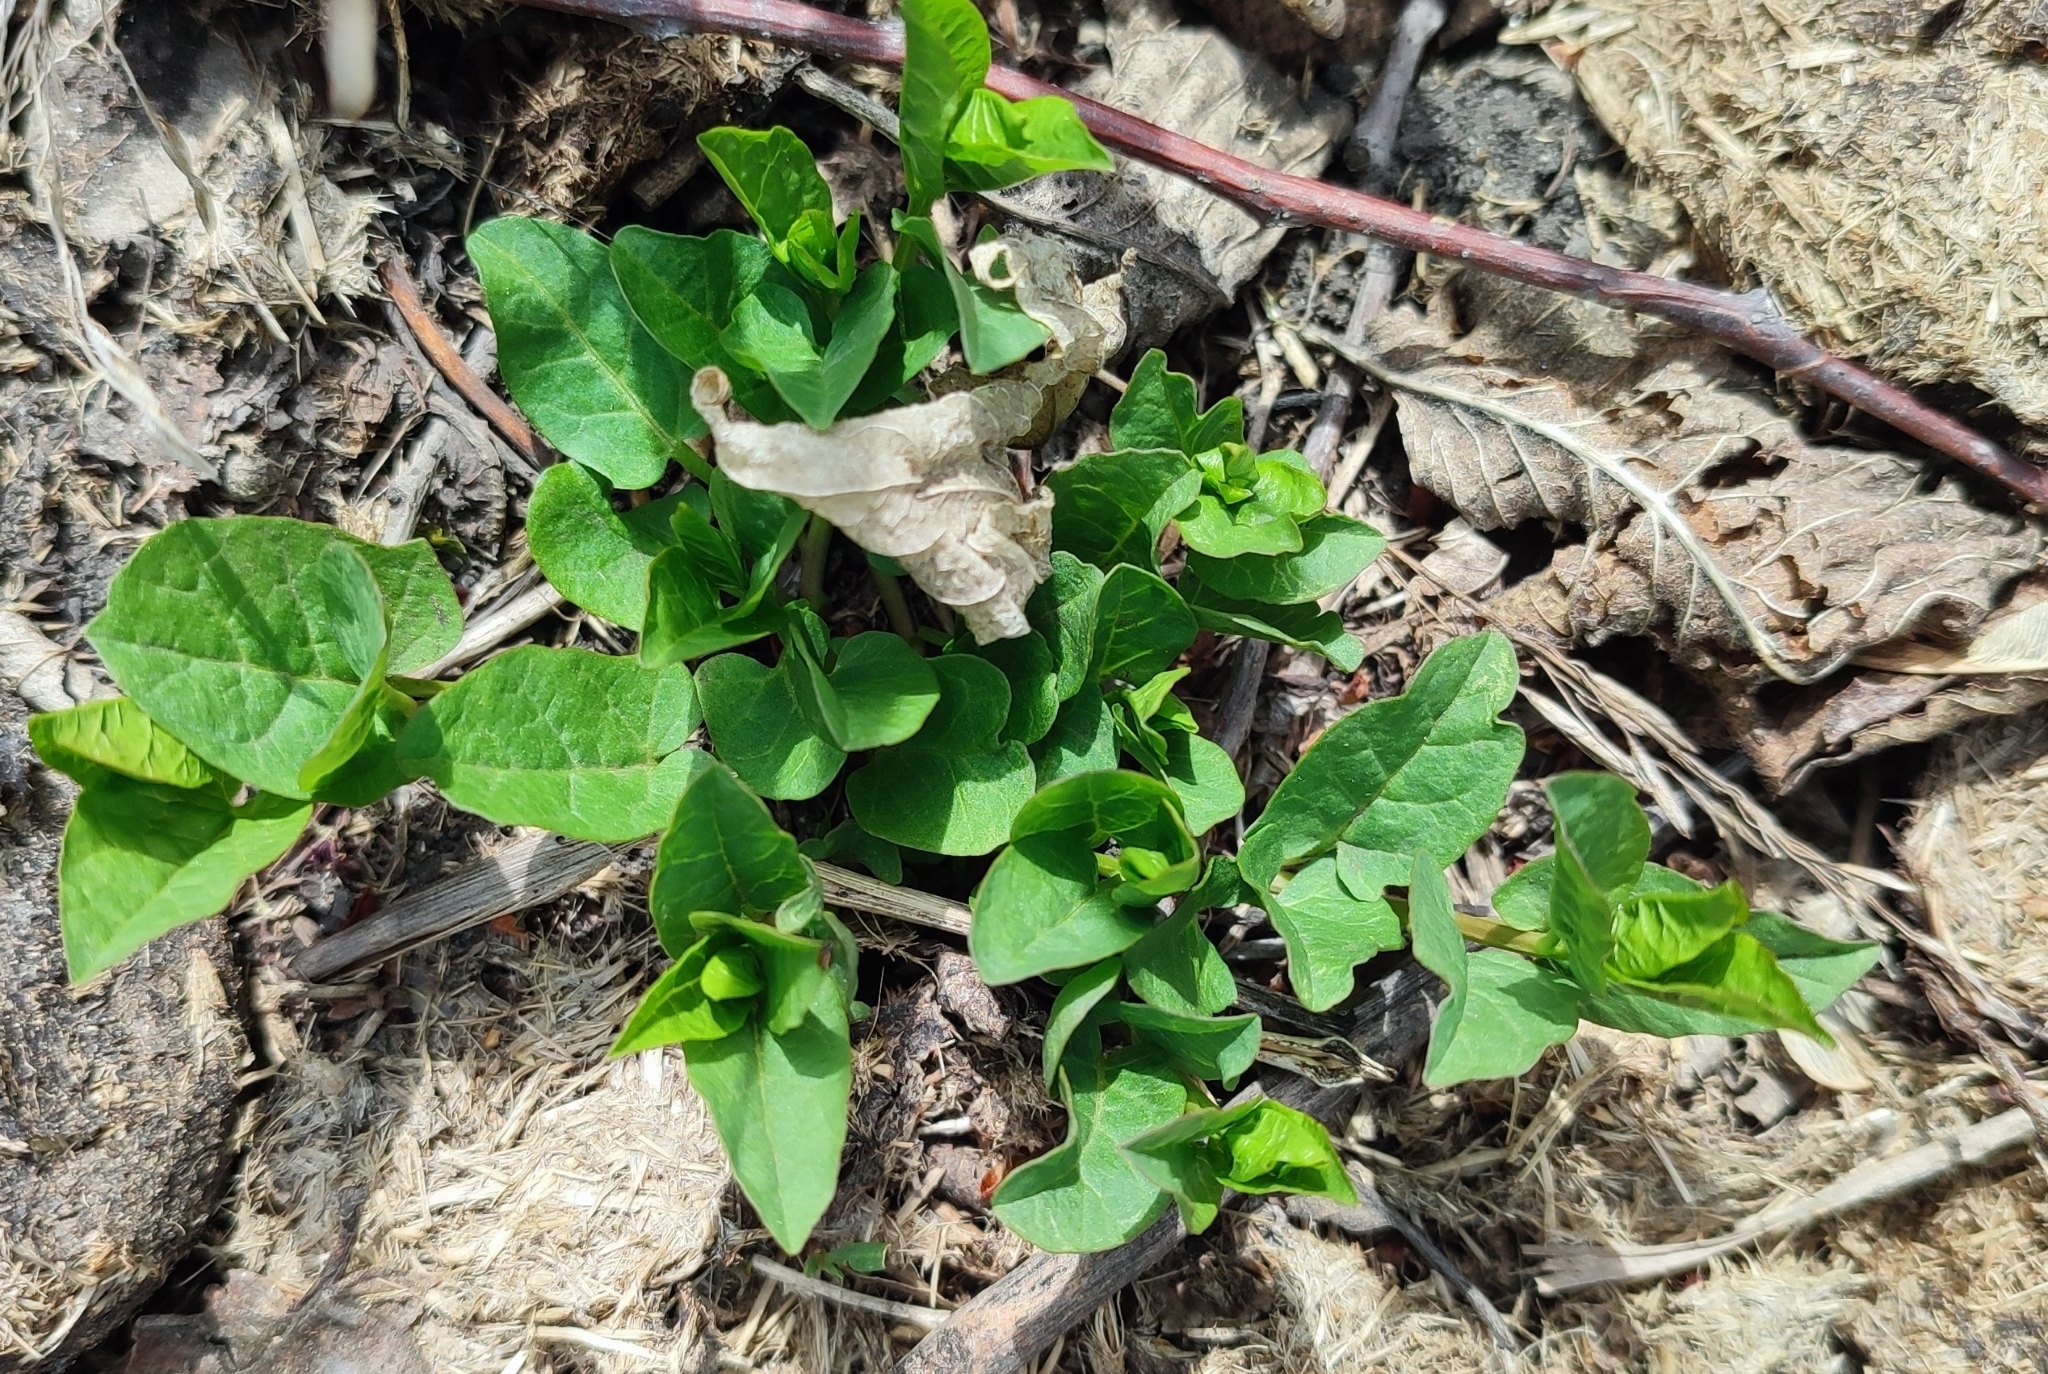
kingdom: Plantae
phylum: Tracheophyta
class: Magnoliopsida
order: Solanales
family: Convolvulaceae
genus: Convolvulus
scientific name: Convolvulus arvensis
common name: Field bindweed
